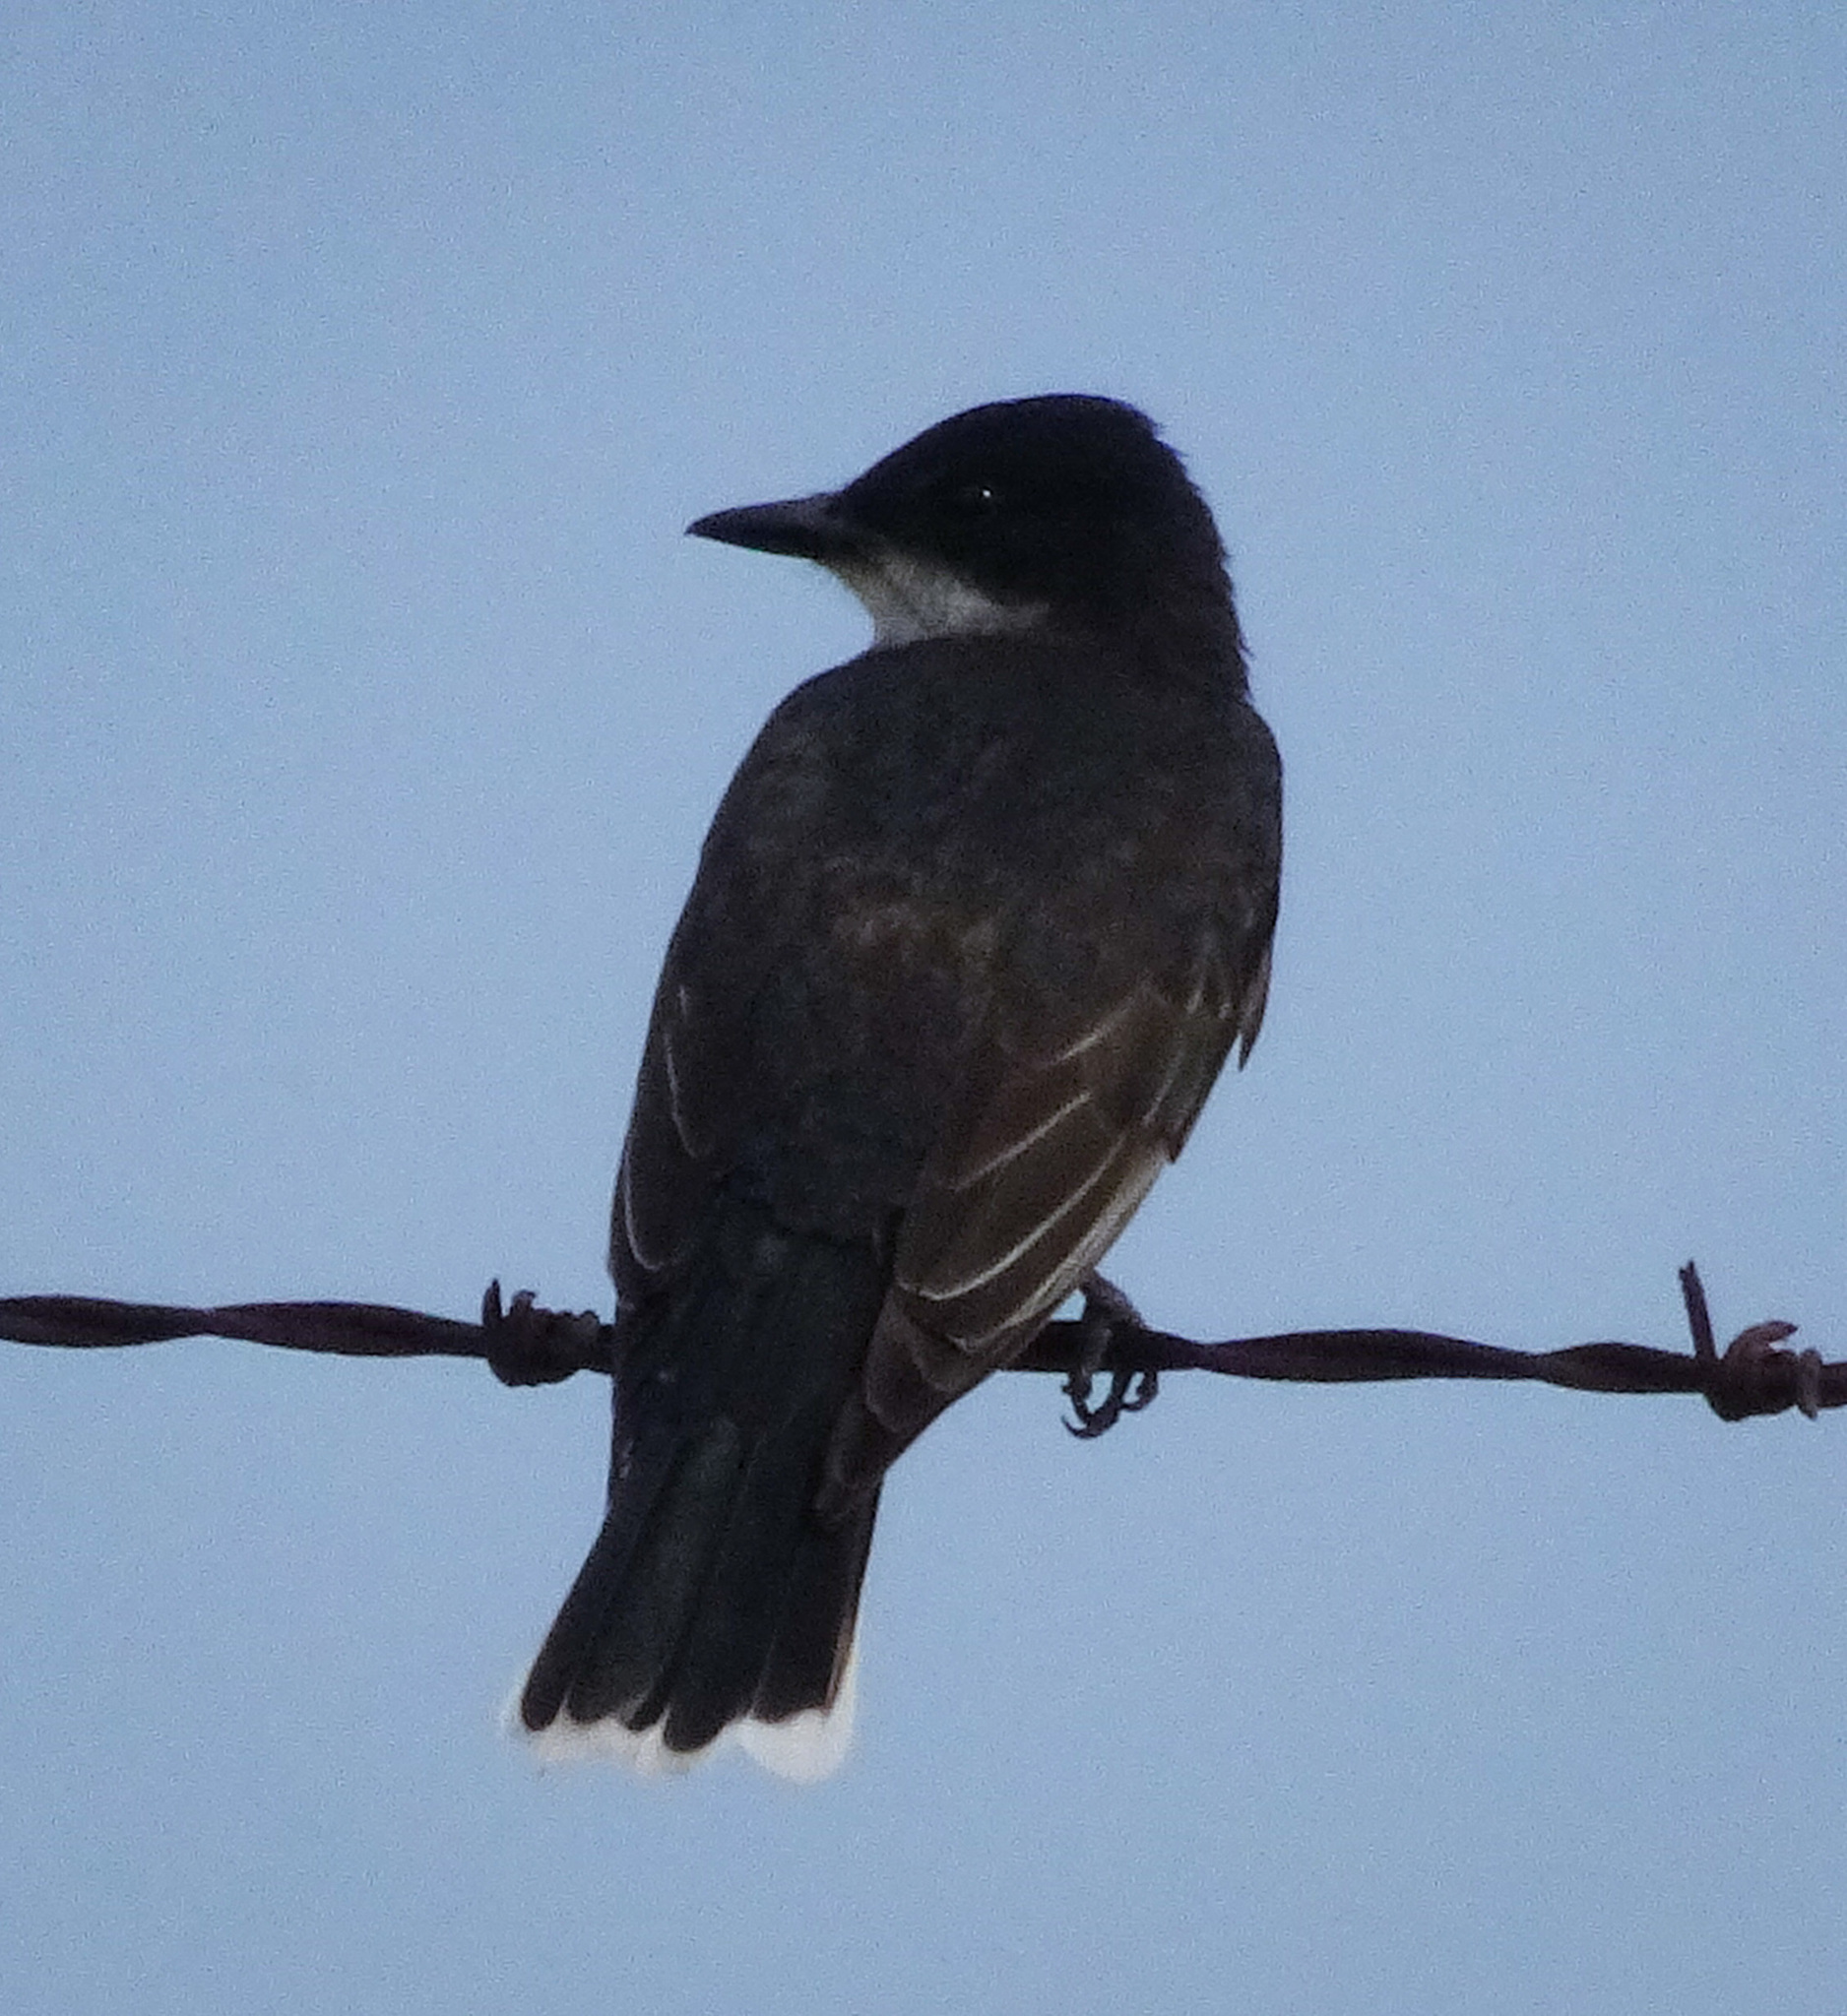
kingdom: Animalia
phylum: Chordata
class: Aves
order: Passeriformes
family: Tyrannidae
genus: Tyrannus
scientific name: Tyrannus tyrannus
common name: Eastern kingbird
